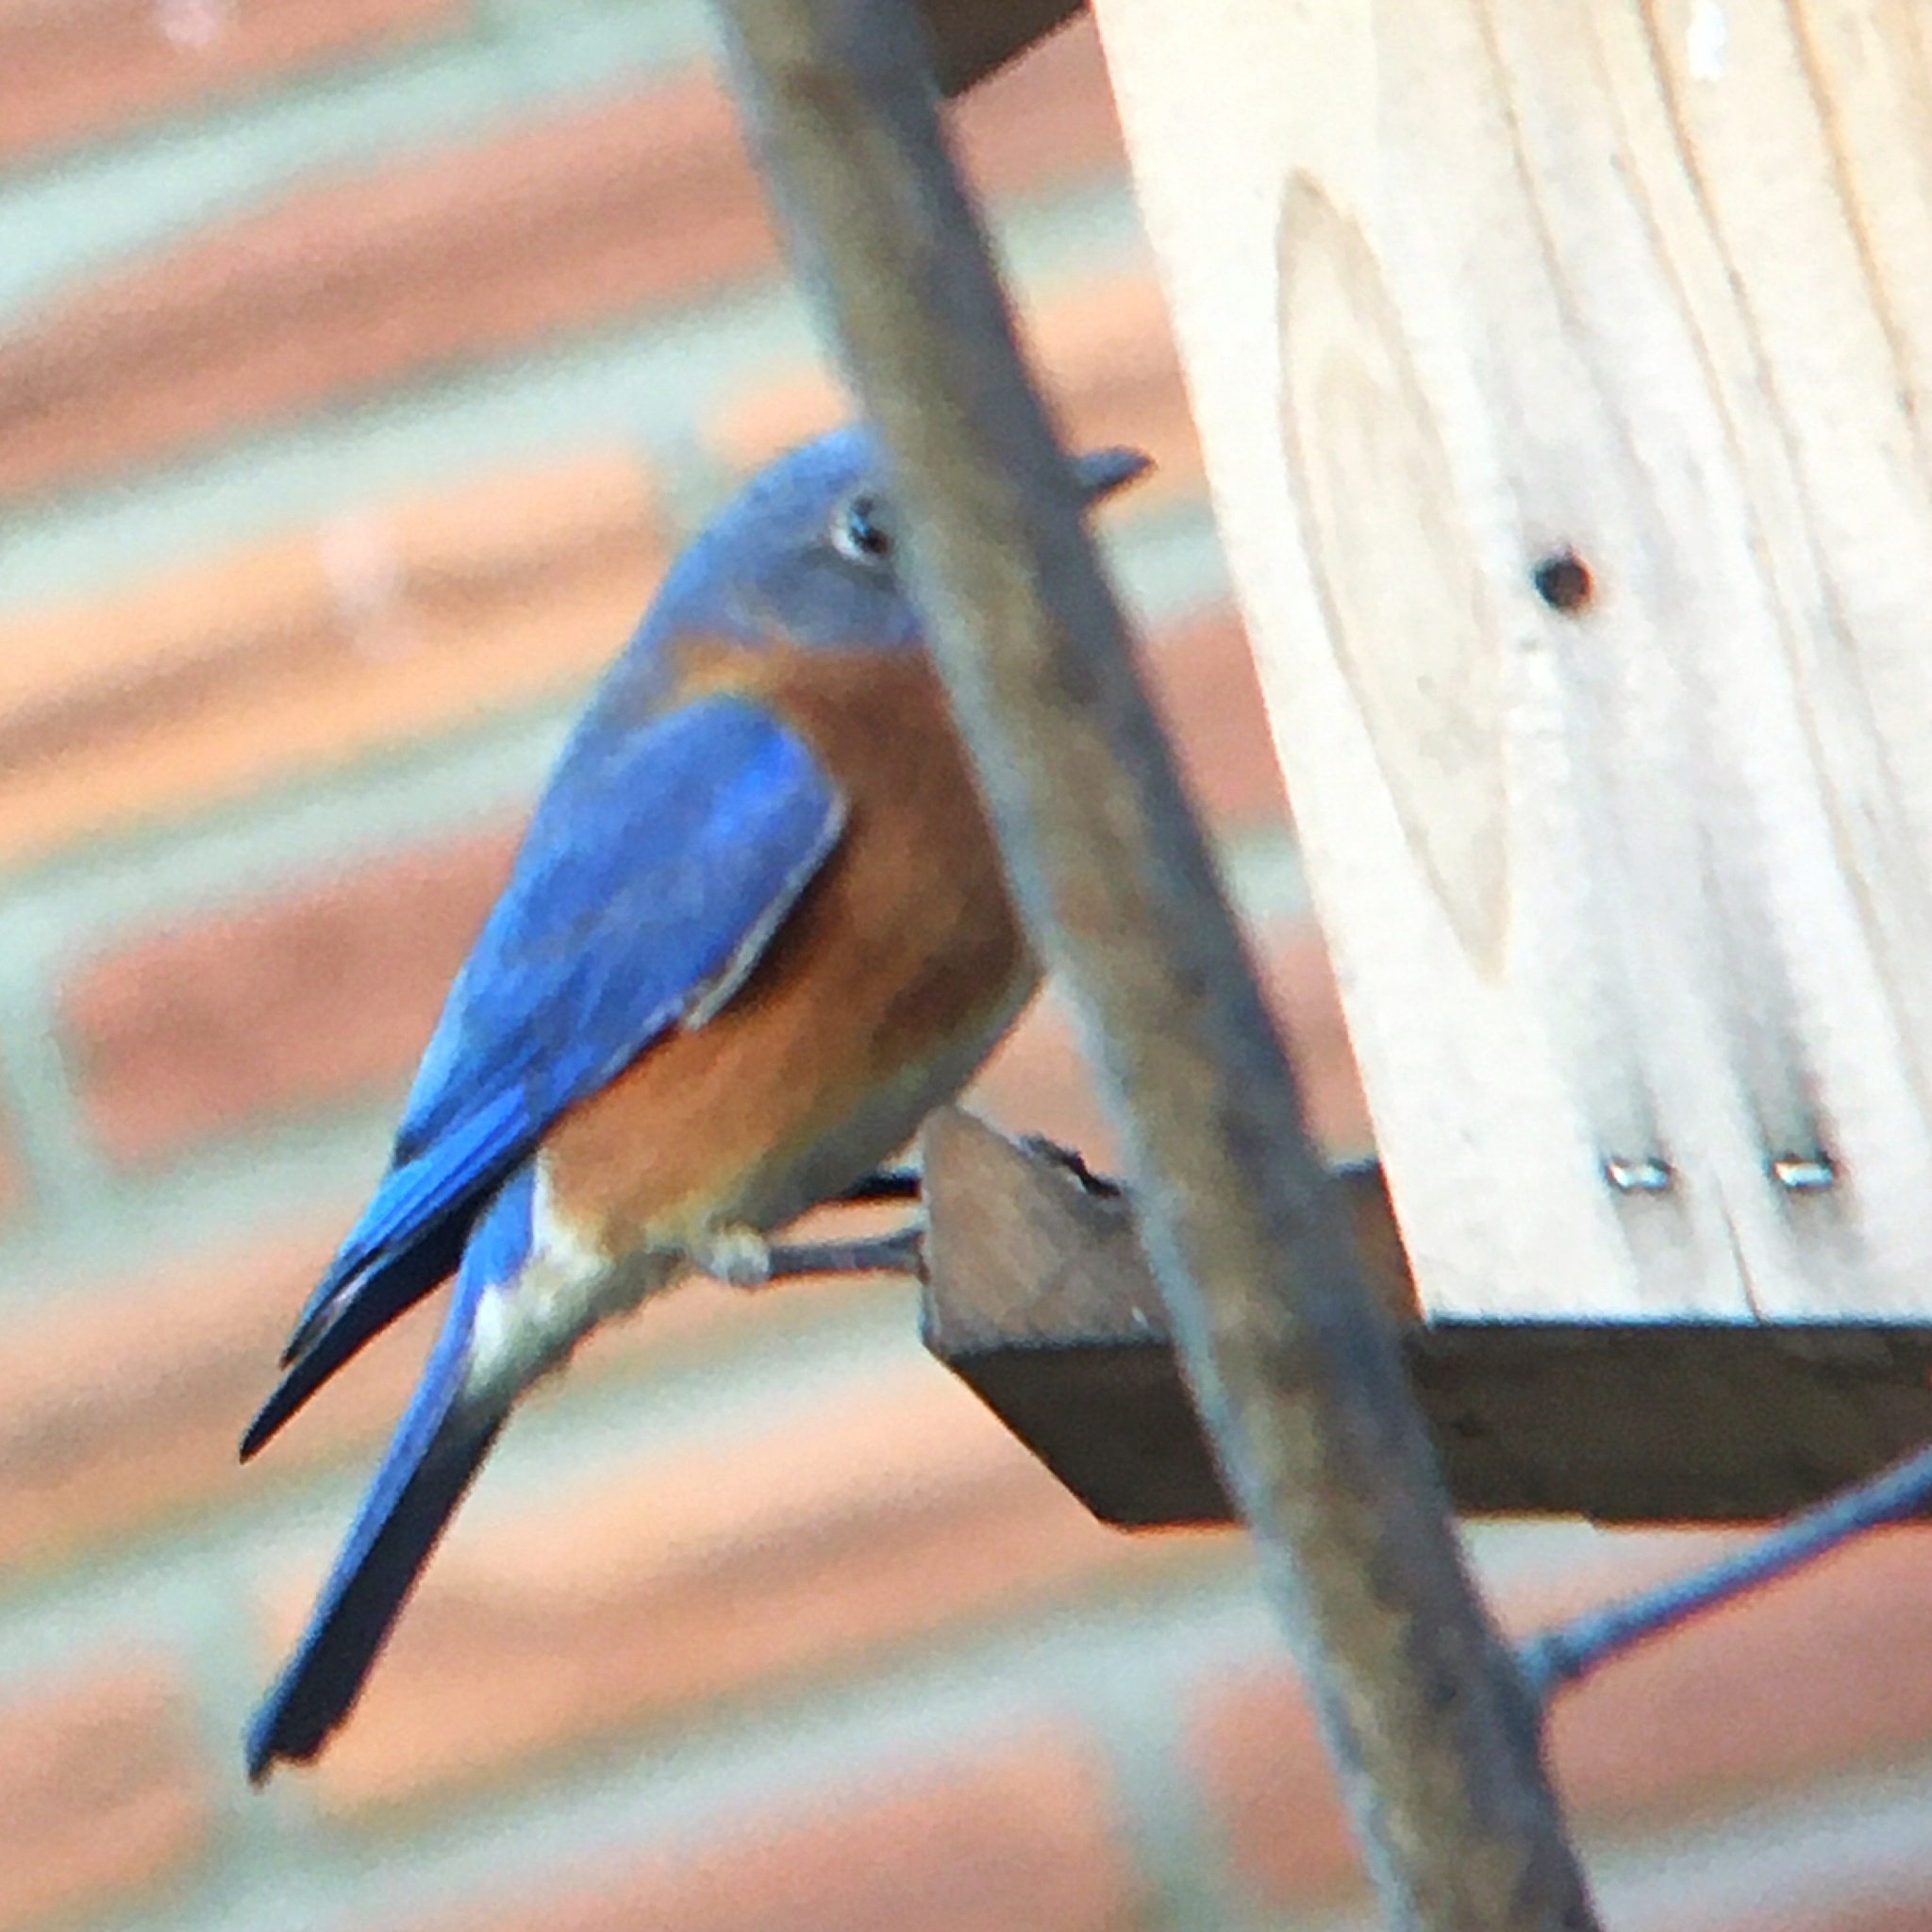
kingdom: Animalia
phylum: Chordata
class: Aves
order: Passeriformes
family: Turdidae
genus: Sialia
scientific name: Sialia sialis
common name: Eastern bluebird
